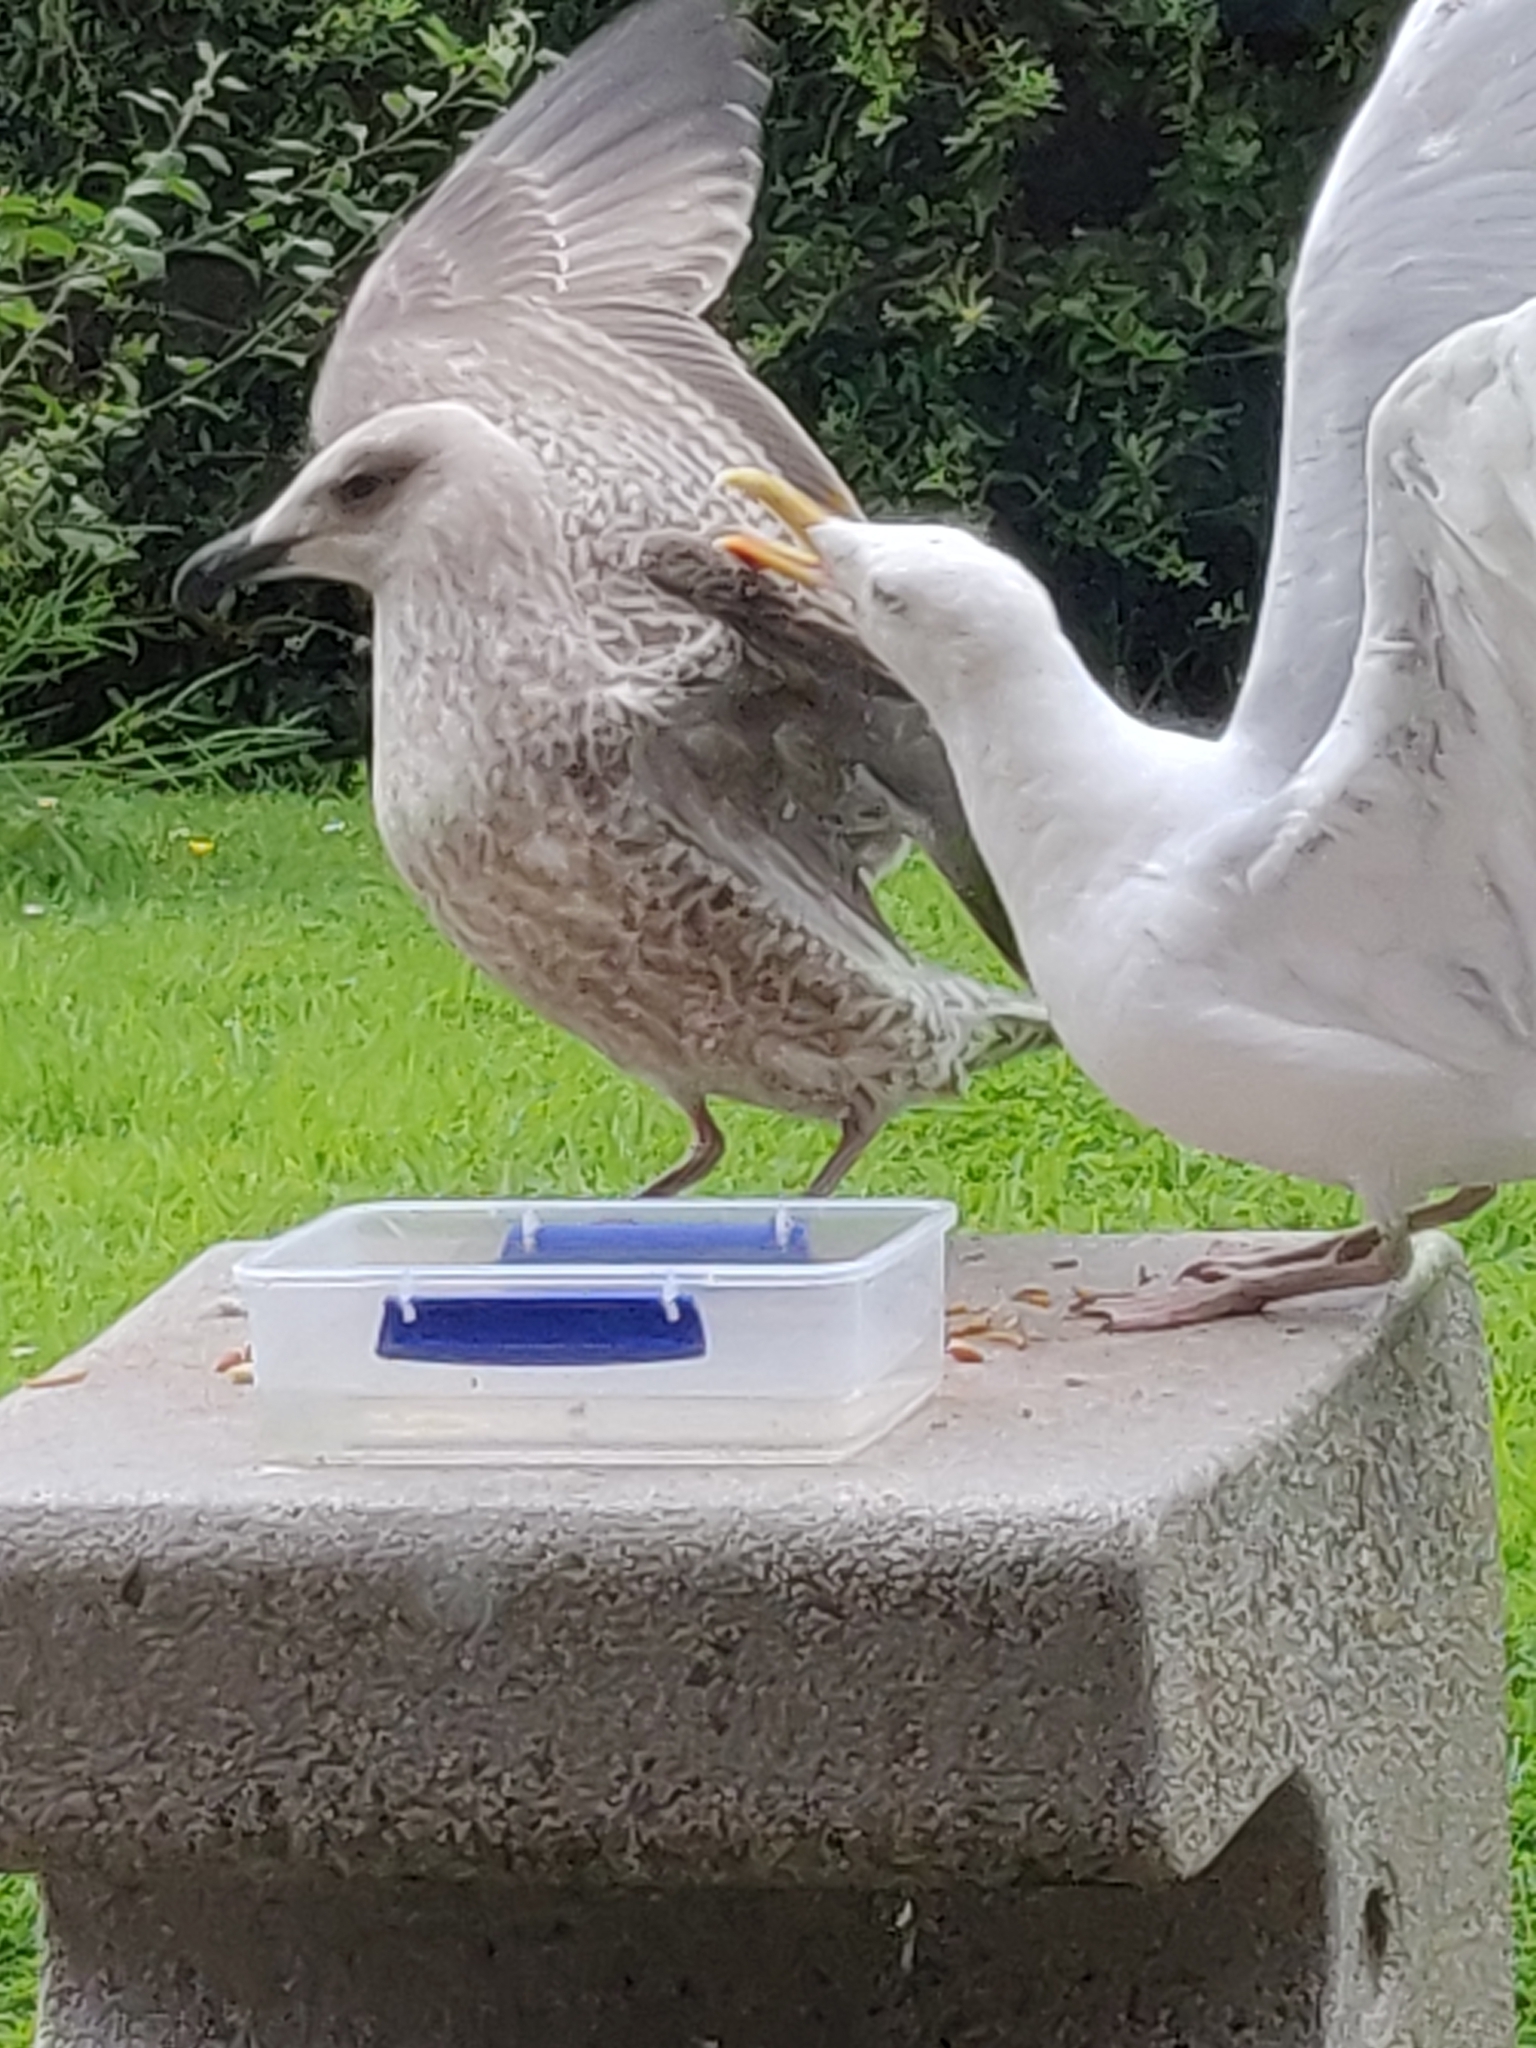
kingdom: Animalia
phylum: Chordata
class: Aves
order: Charadriiformes
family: Laridae
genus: Larus
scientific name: Larus argentatus
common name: Herring gull
